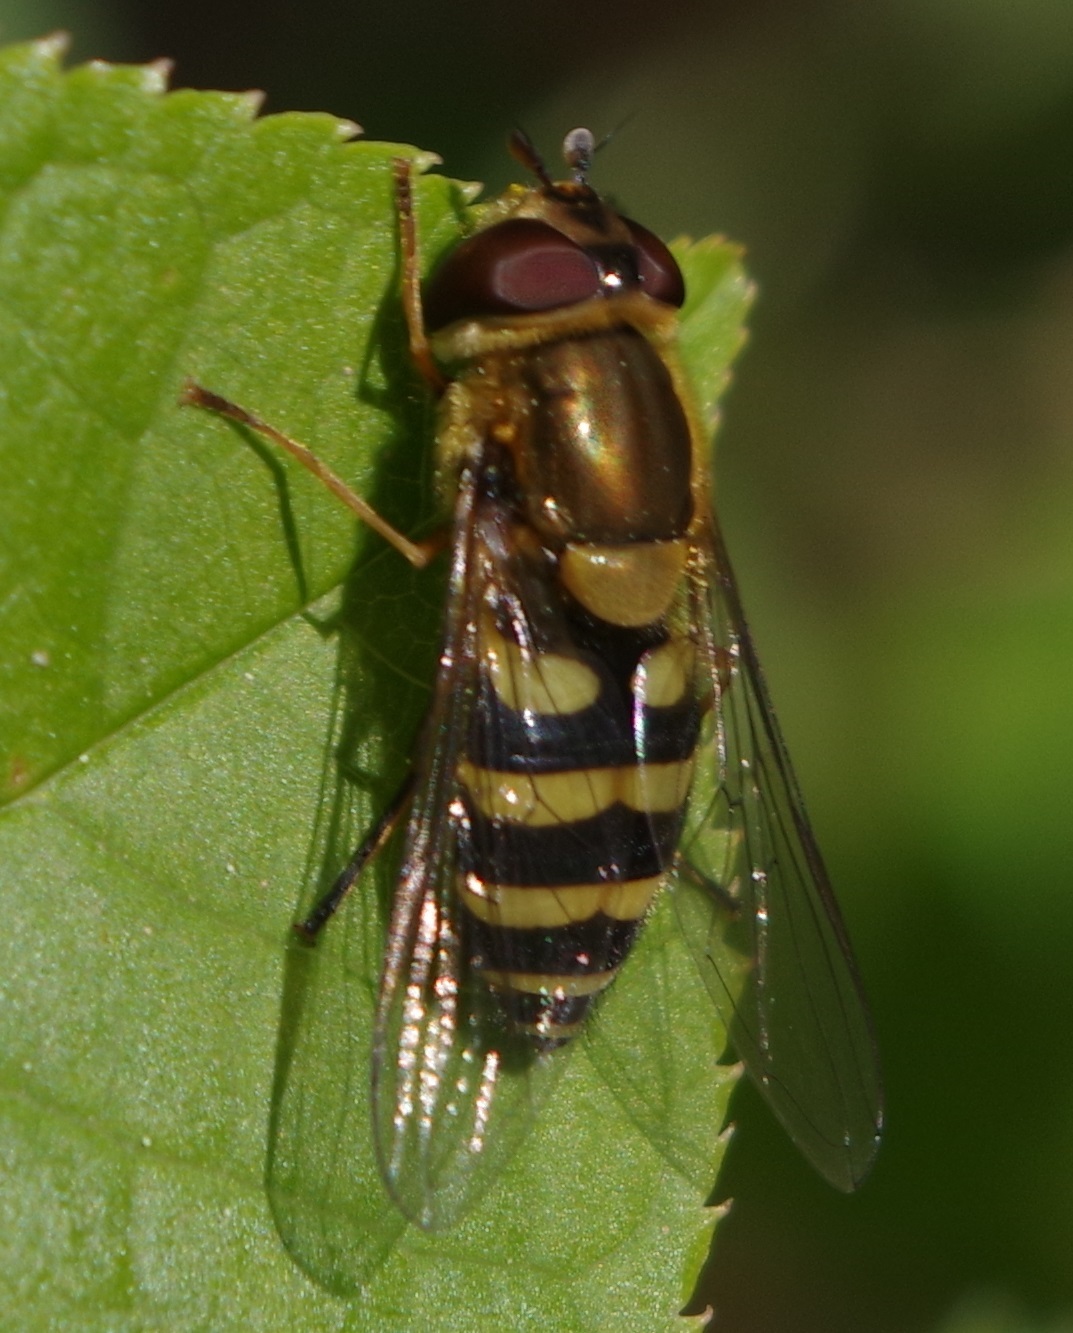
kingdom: Animalia
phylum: Arthropoda
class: Insecta
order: Diptera
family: Syrphidae
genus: Syrphus
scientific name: Syrphus
